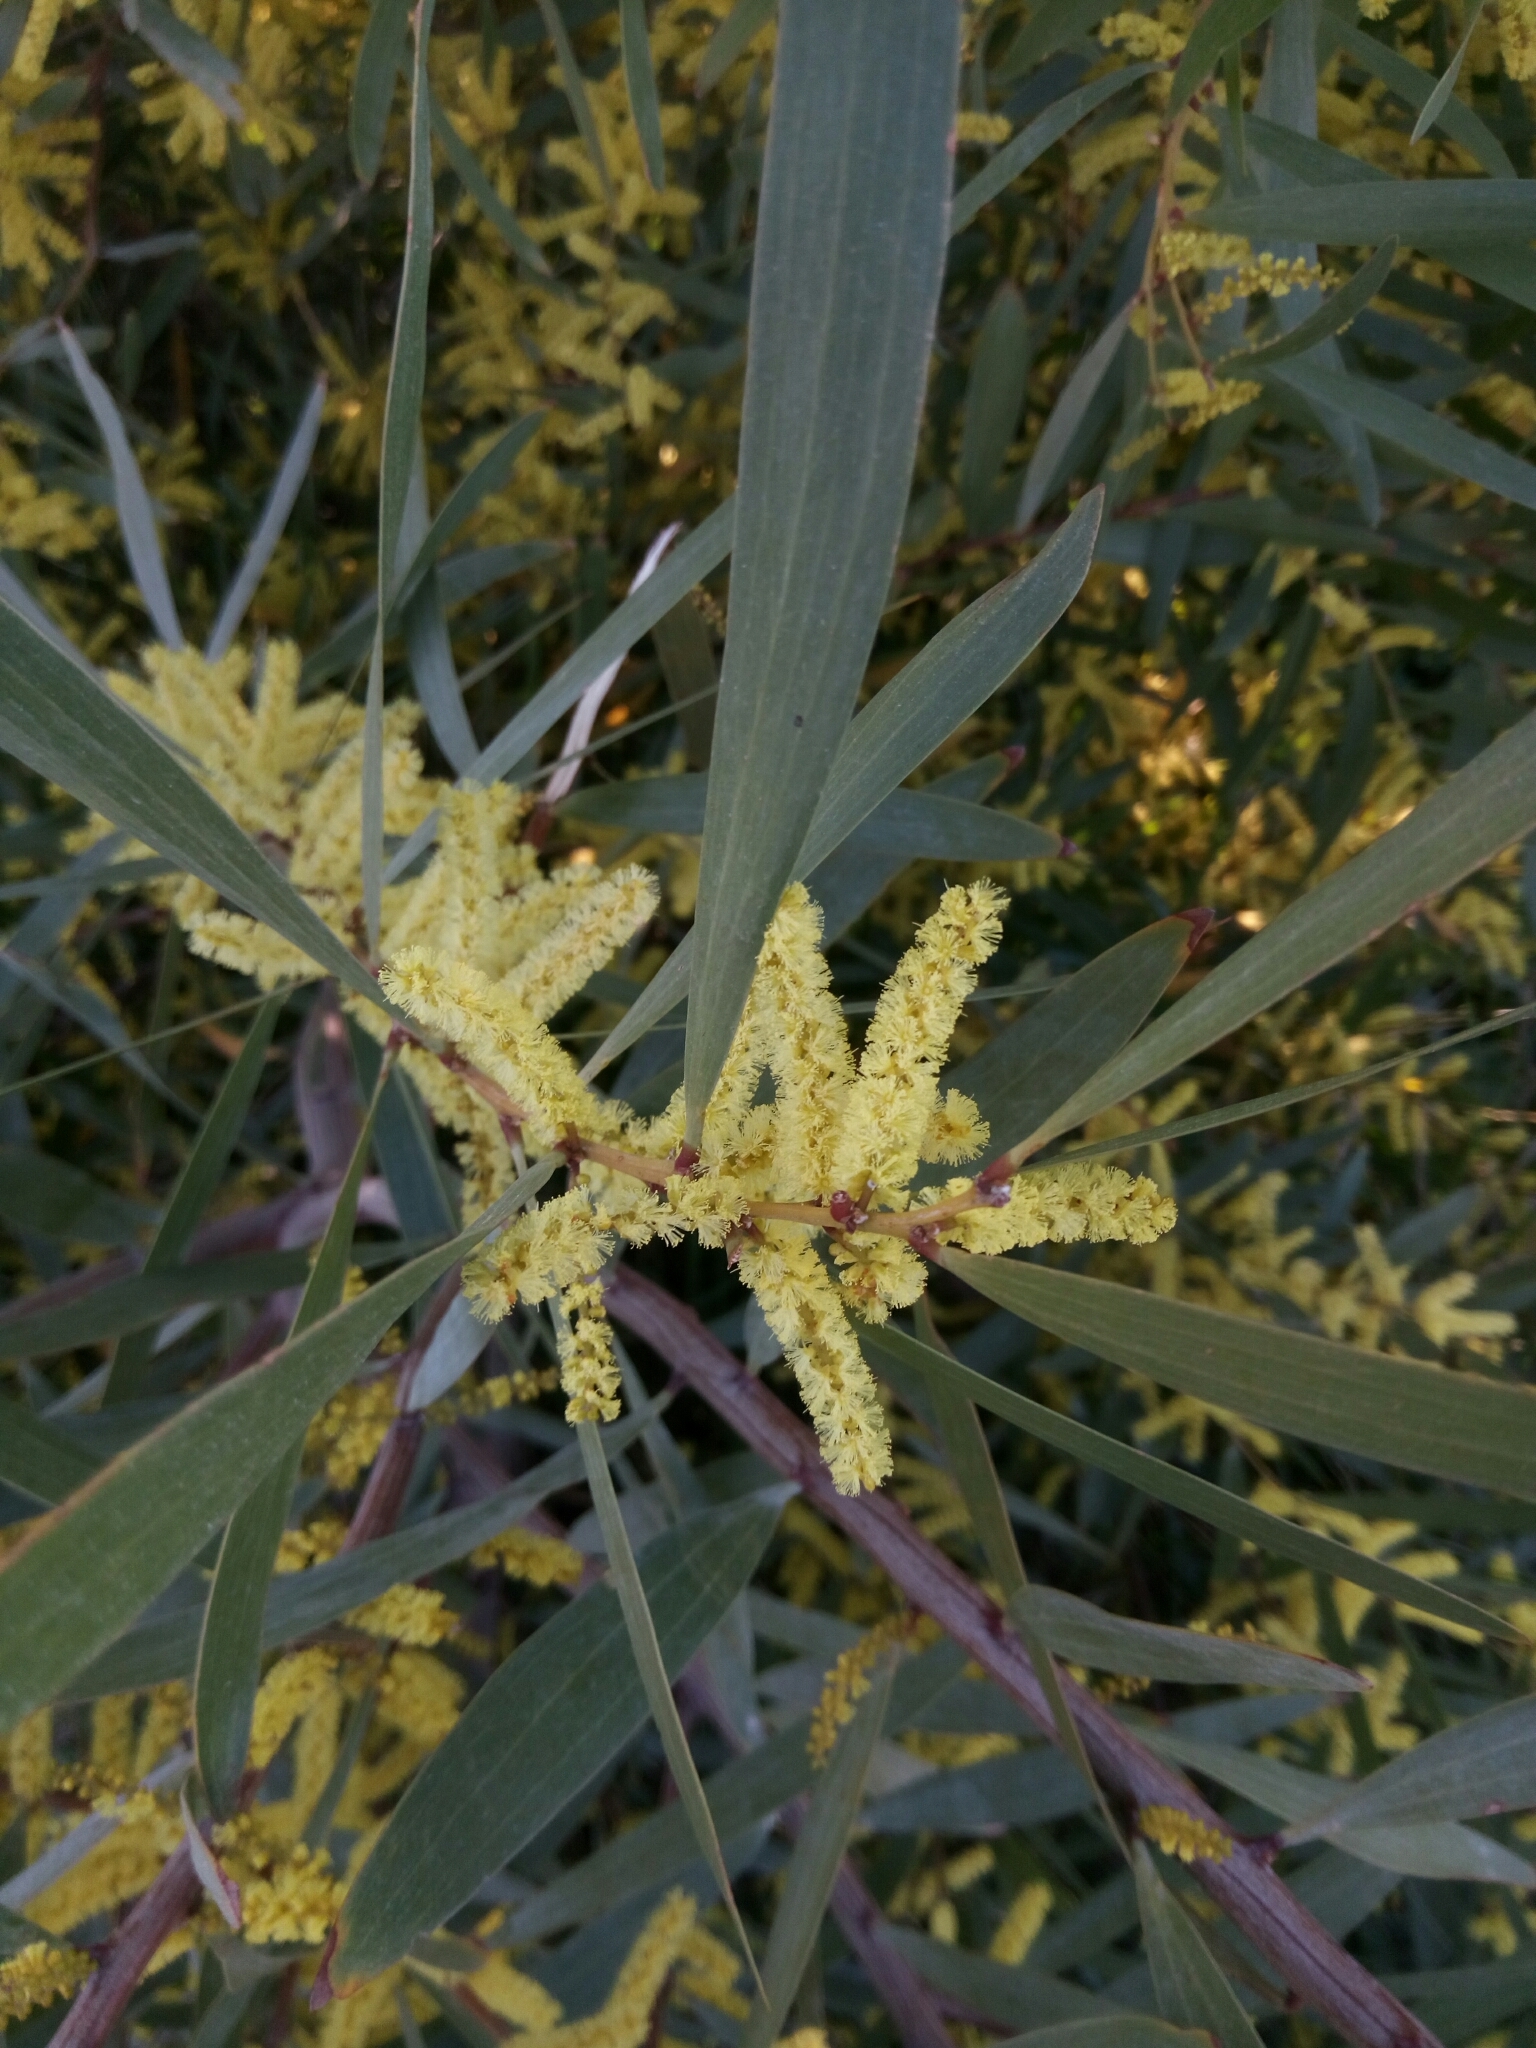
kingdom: Plantae
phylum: Tracheophyta
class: Magnoliopsida
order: Fabales
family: Fabaceae
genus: Acacia
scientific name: Acacia longifolia
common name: Sydney golden wattle
